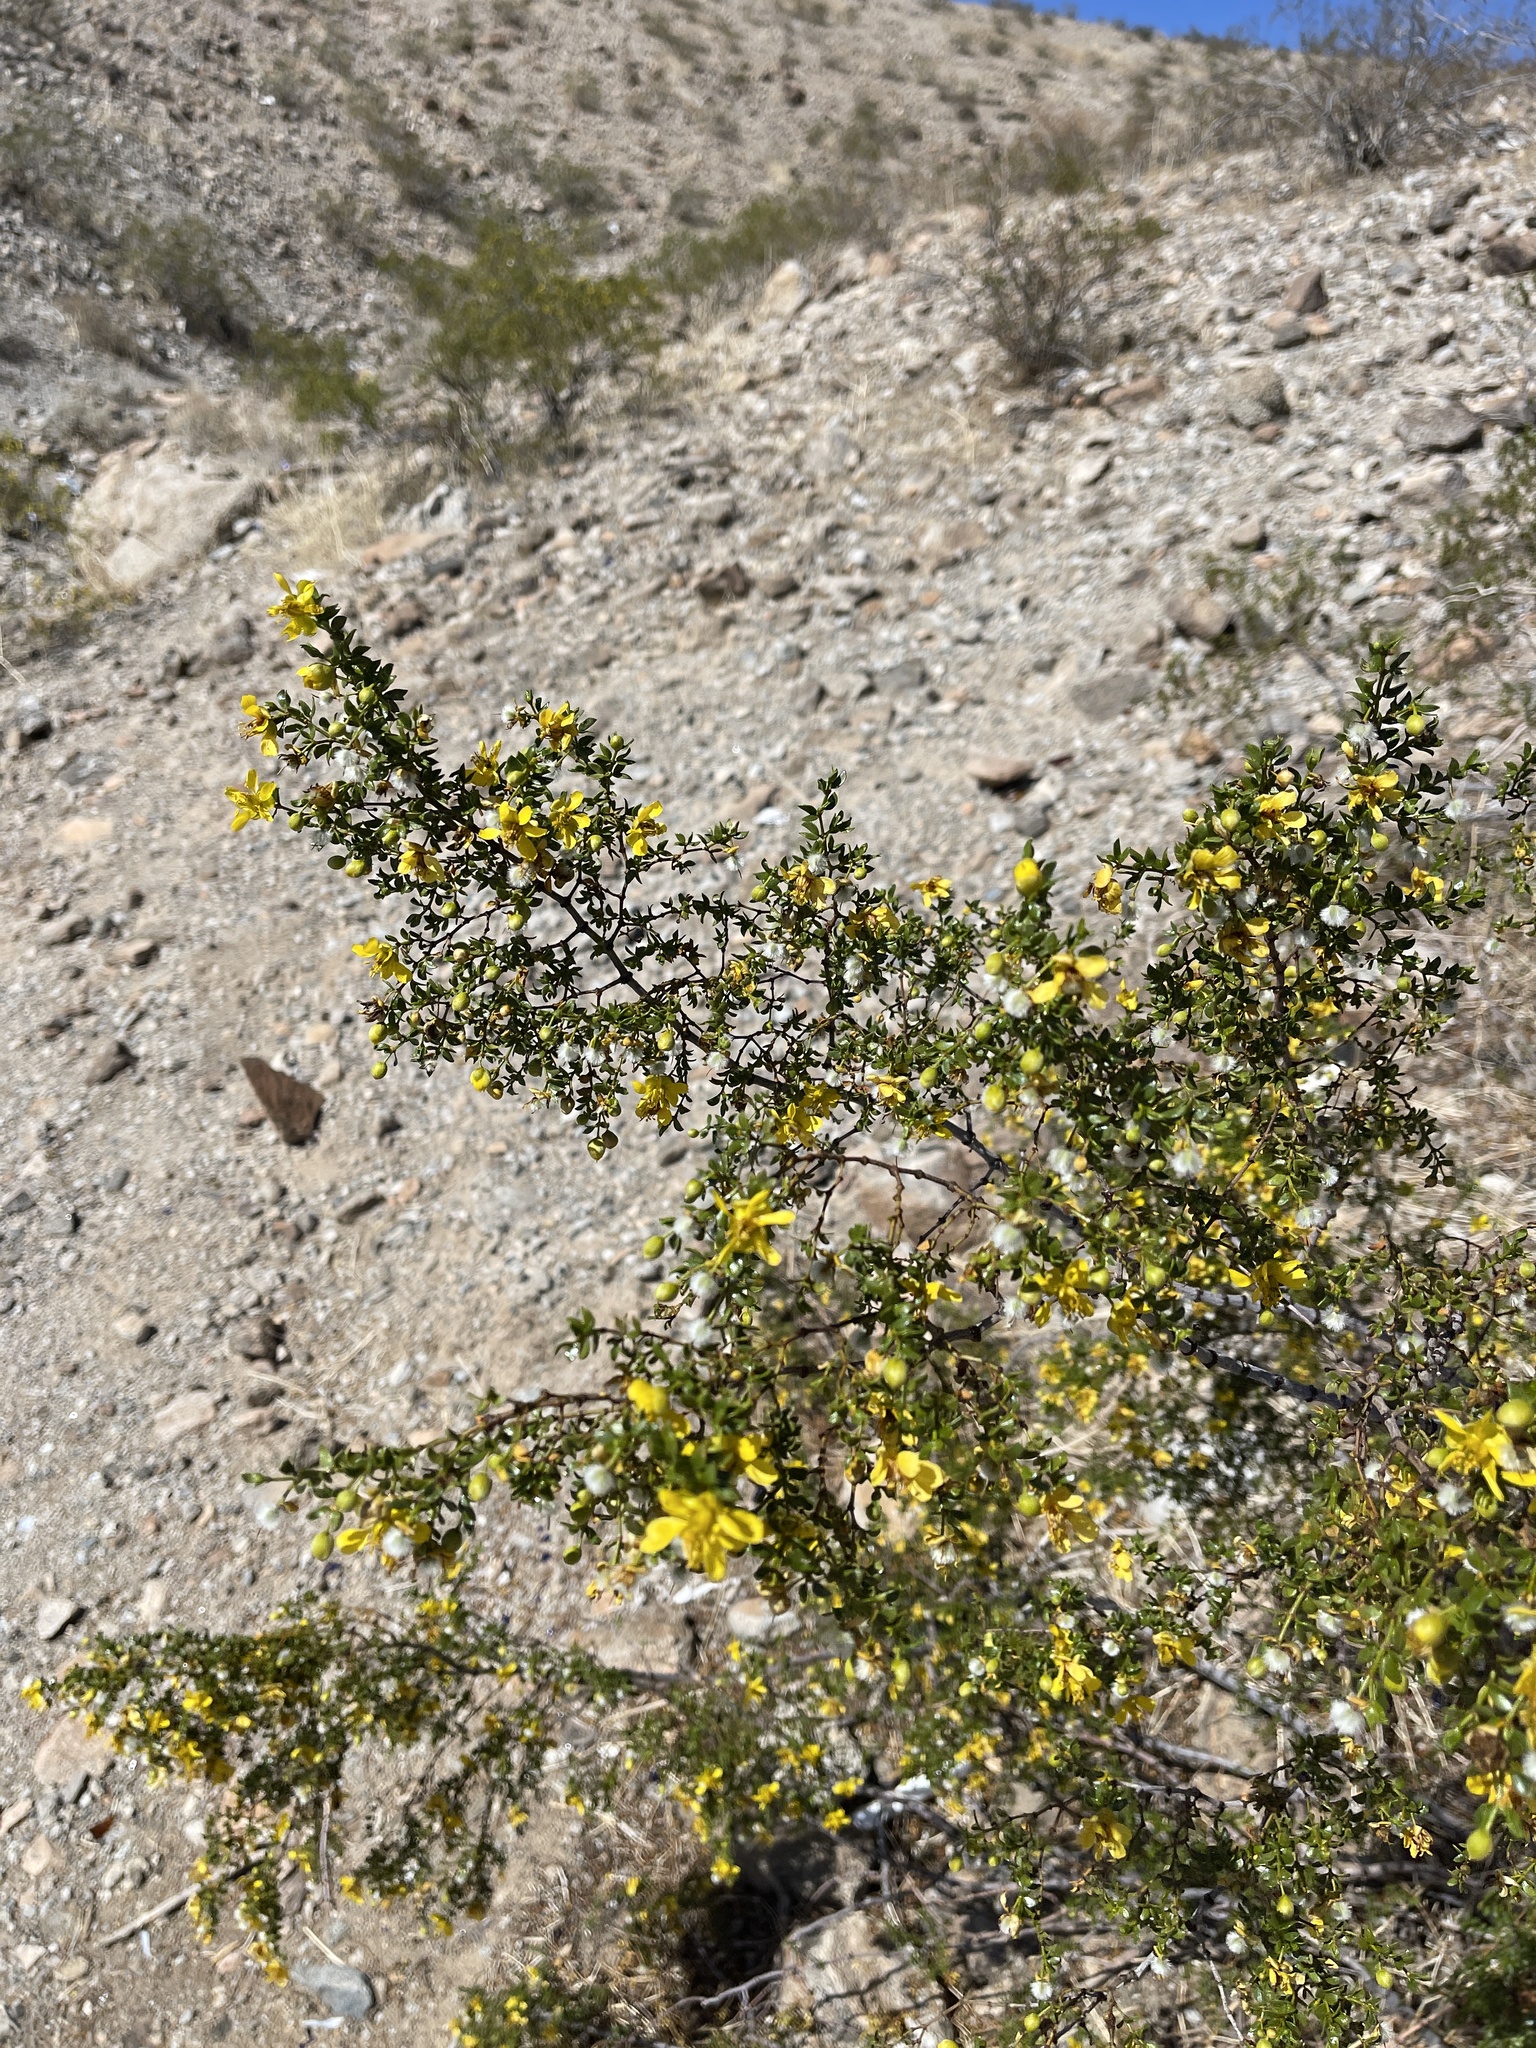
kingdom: Plantae
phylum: Tracheophyta
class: Magnoliopsida
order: Zygophyllales
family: Zygophyllaceae
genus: Larrea
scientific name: Larrea tridentata
